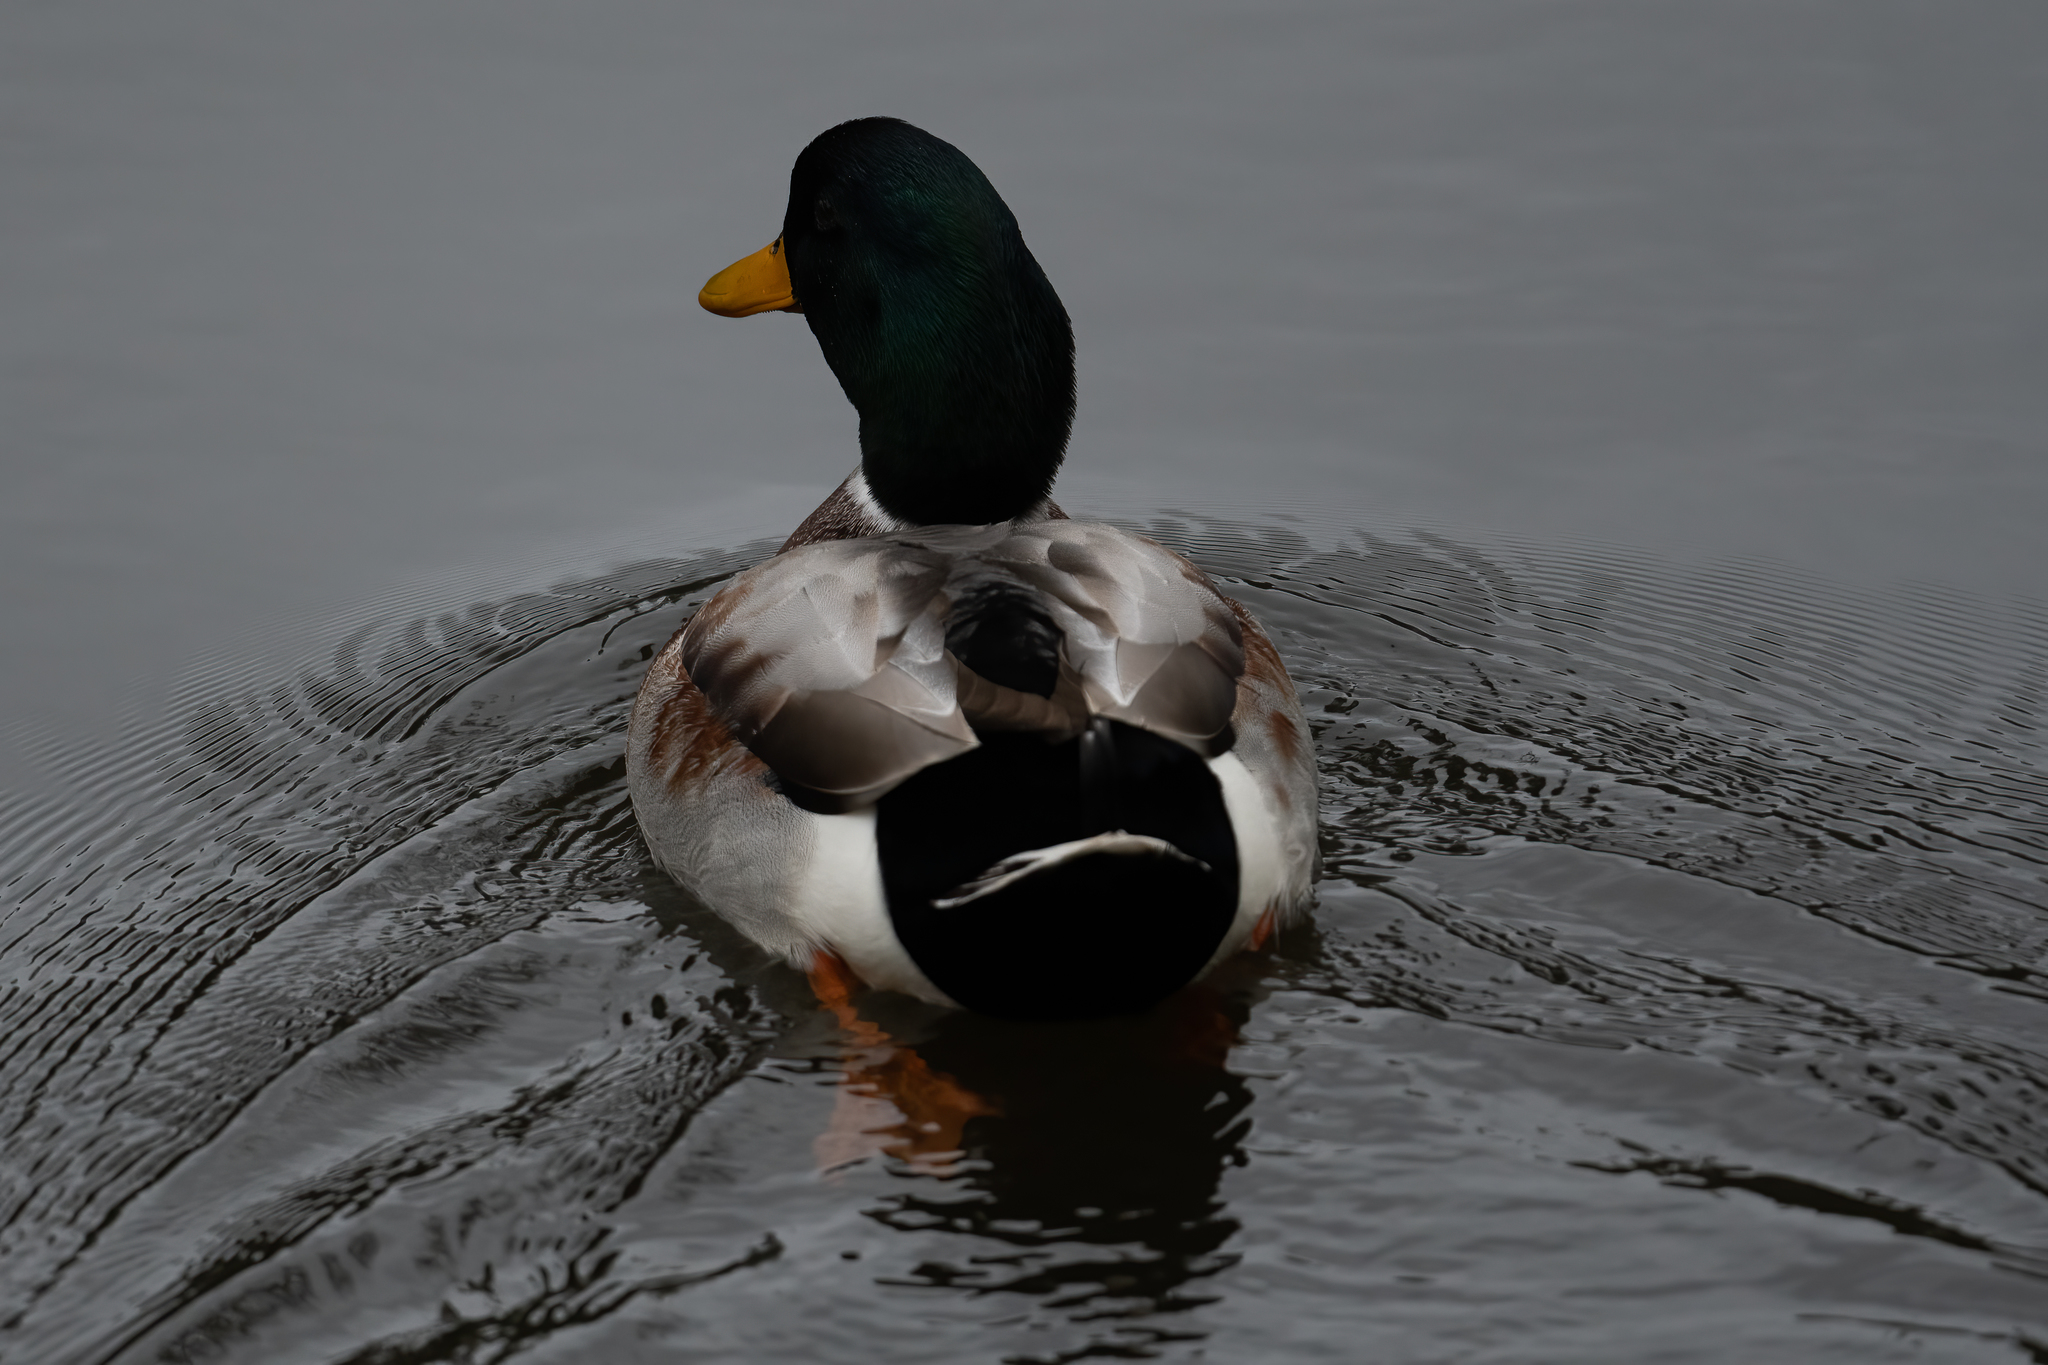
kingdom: Animalia
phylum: Chordata
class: Aves
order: Anseriformes
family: Anatidae
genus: Anas
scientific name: Anas platyrhynchos
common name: Mallard
